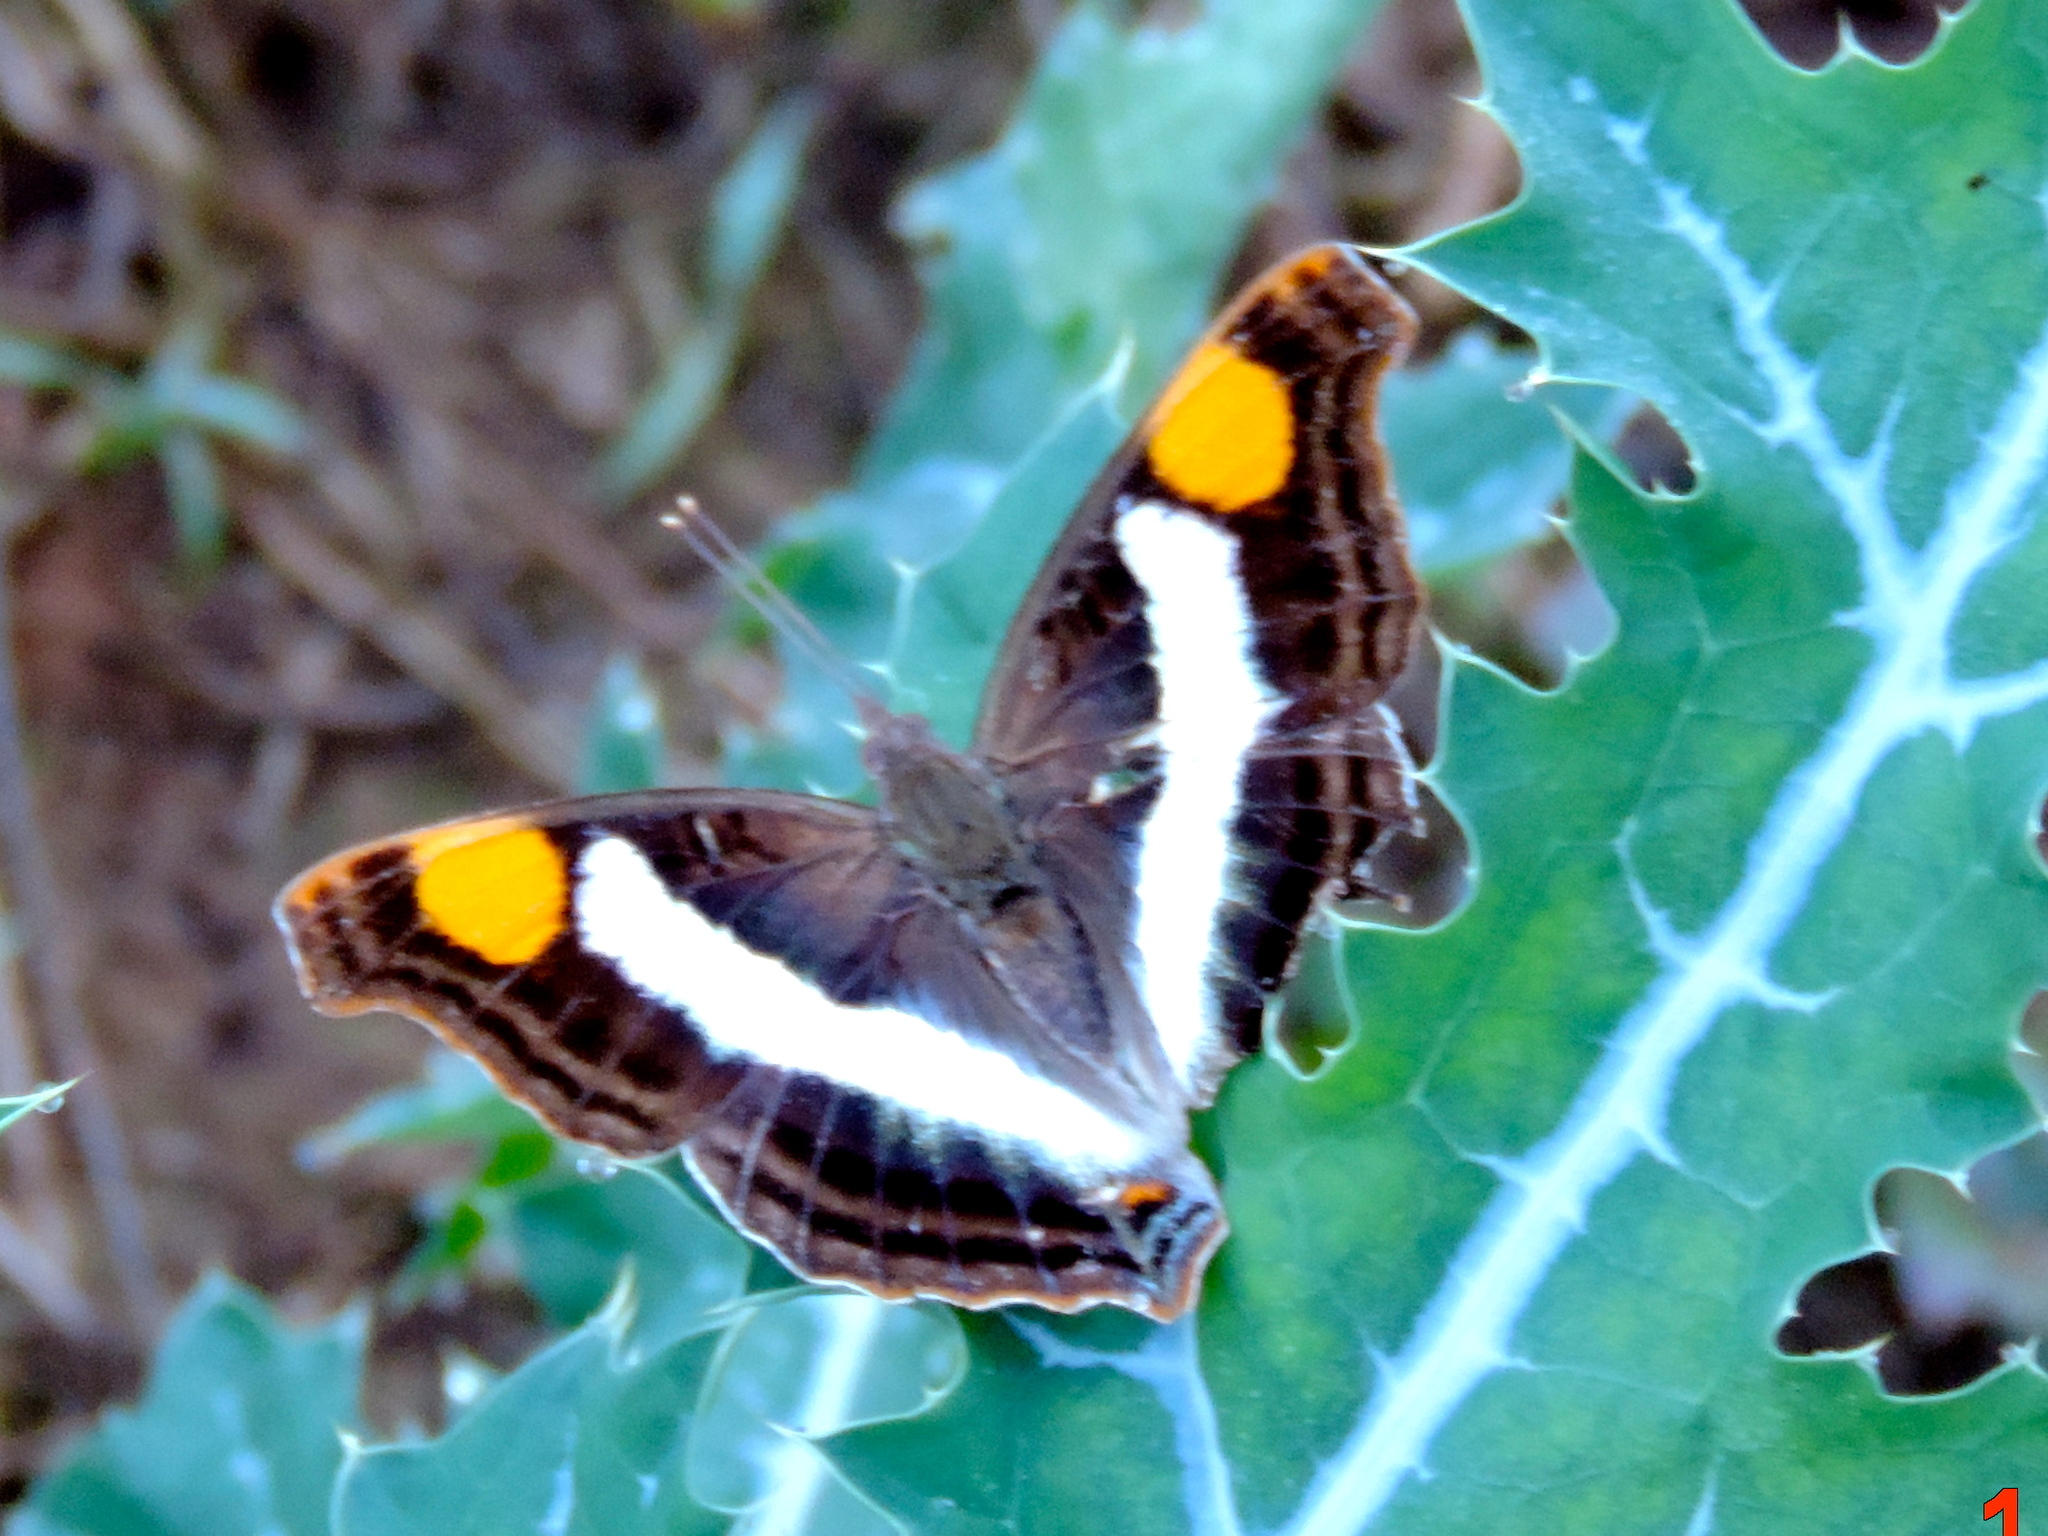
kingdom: Animalia
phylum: Arthropoda
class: Insecta
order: Lepidoptera
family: Nymphalidae
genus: Doxocopa
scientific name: Doxocopa laure
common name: Silver emperor
